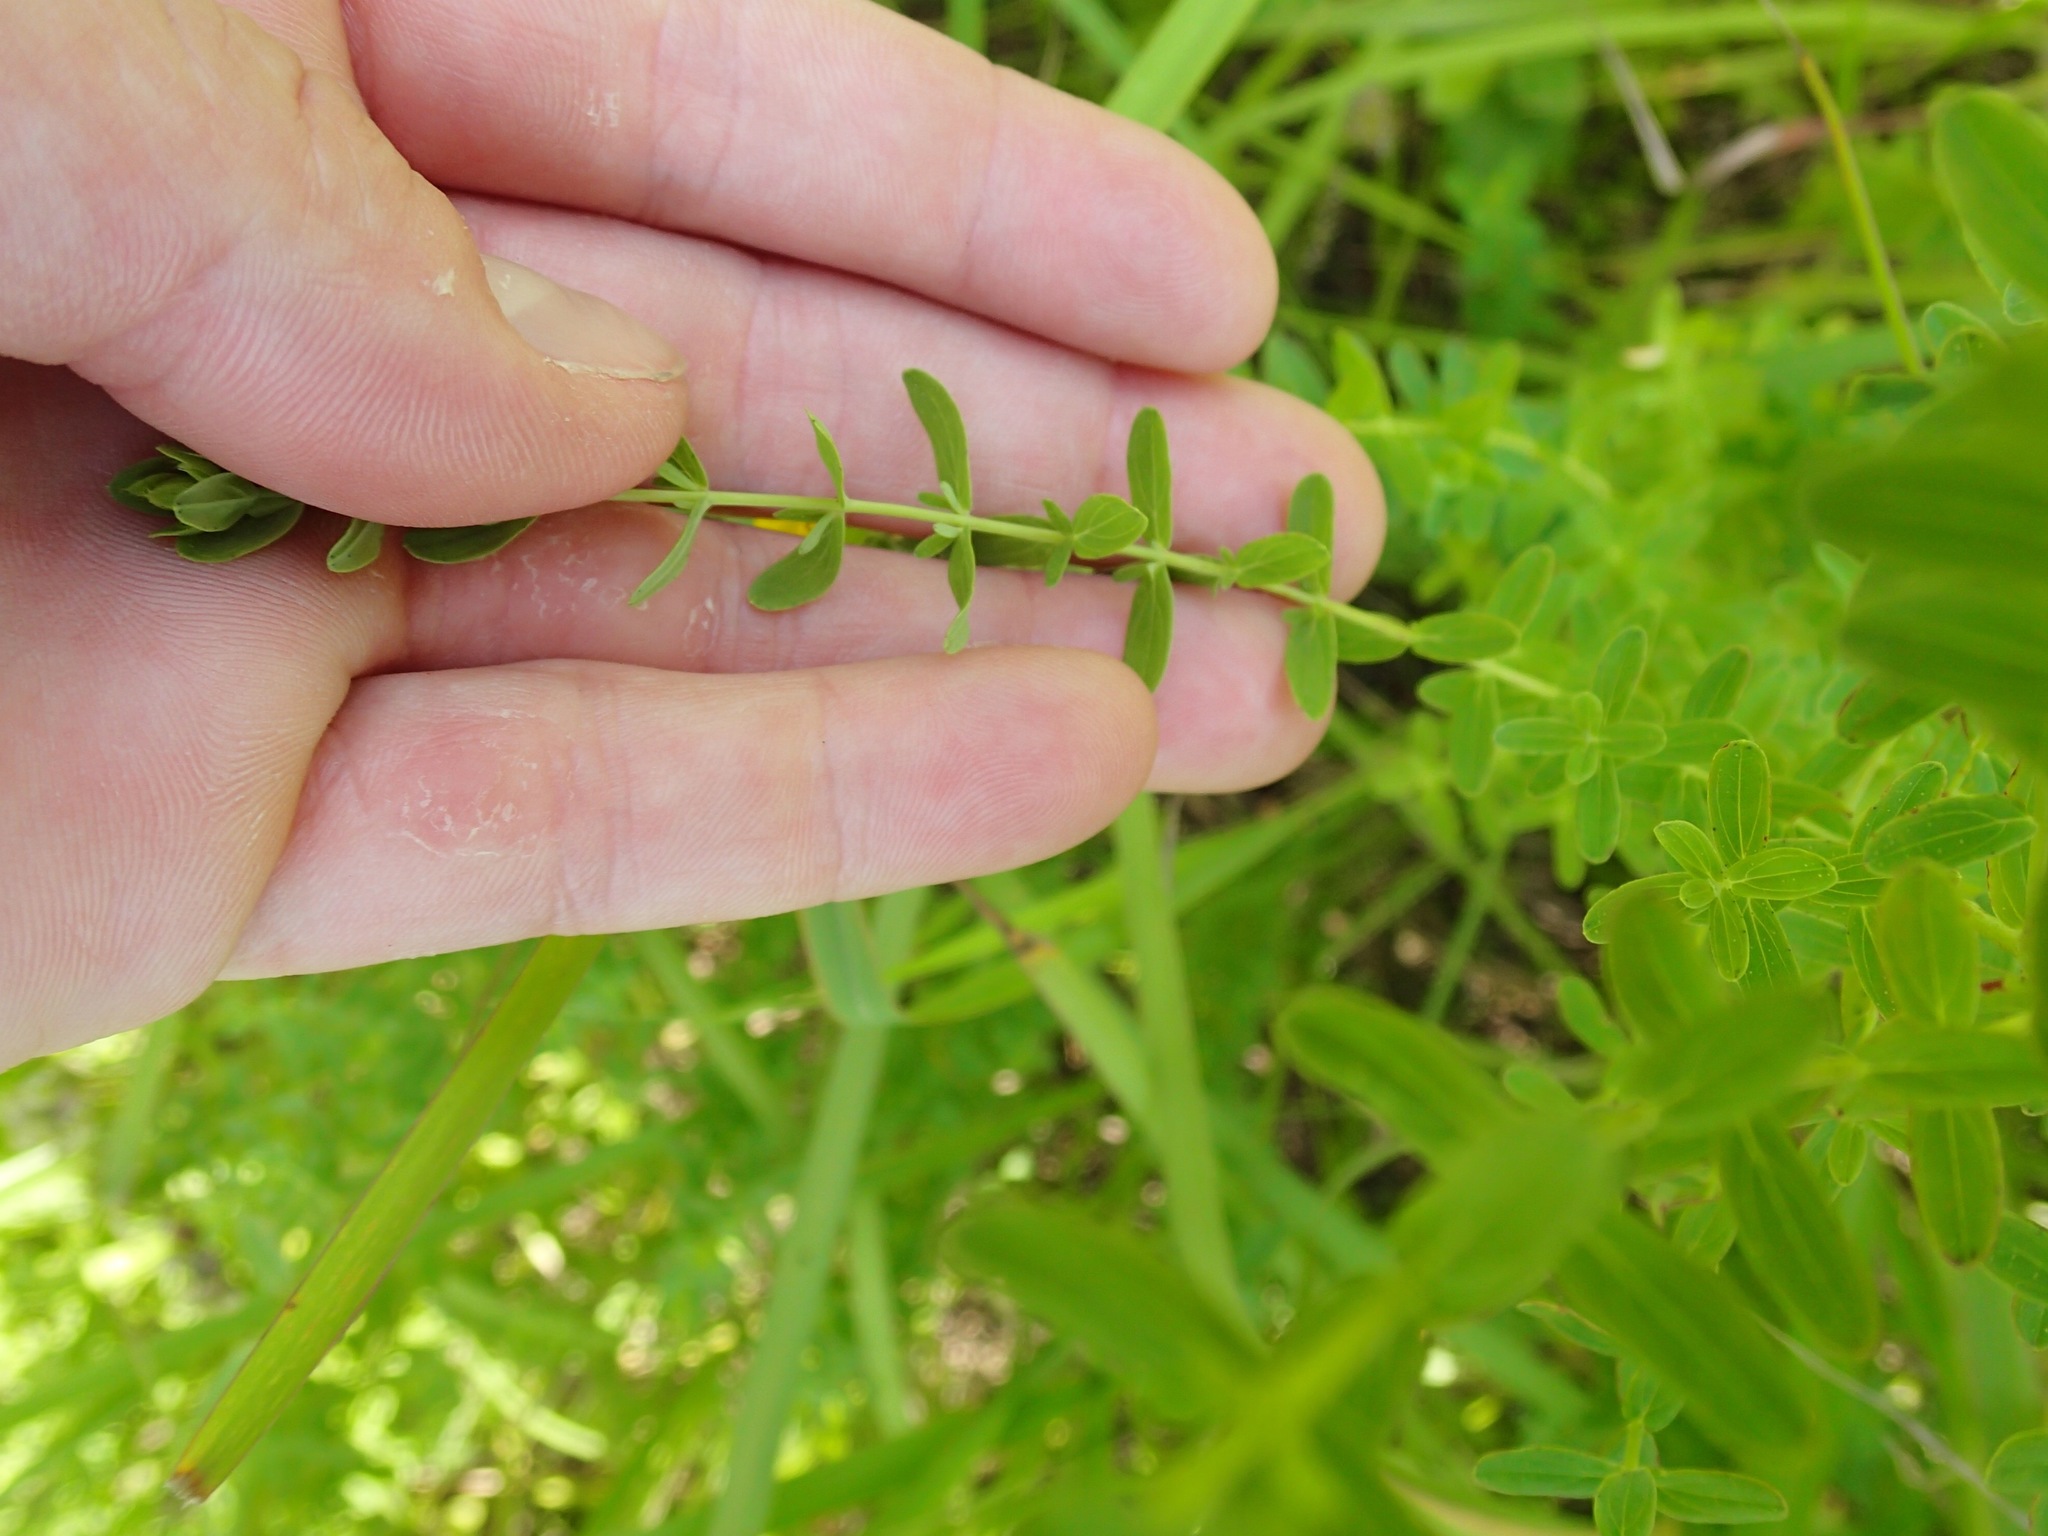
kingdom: Plantae
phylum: Tracheophyta
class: Magnoliopsida
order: Malpighiales
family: Hypericaceae
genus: Hypericum
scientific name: Hypericum punctatum
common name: Spotted st. john's-wort
